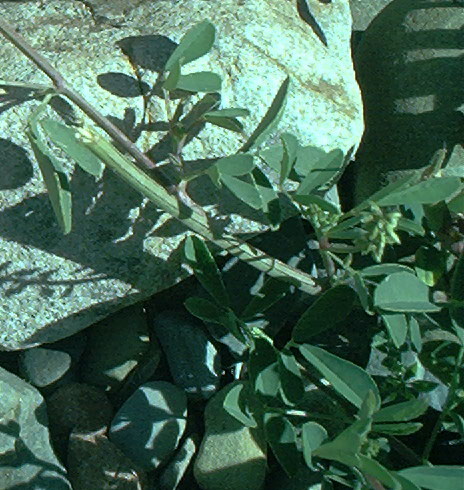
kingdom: Plantae
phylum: Tracheophyta
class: Magnoliopsida
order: Fabales
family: Fabaceae
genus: Melilotus
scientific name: Melilotus albus
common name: White melilot
